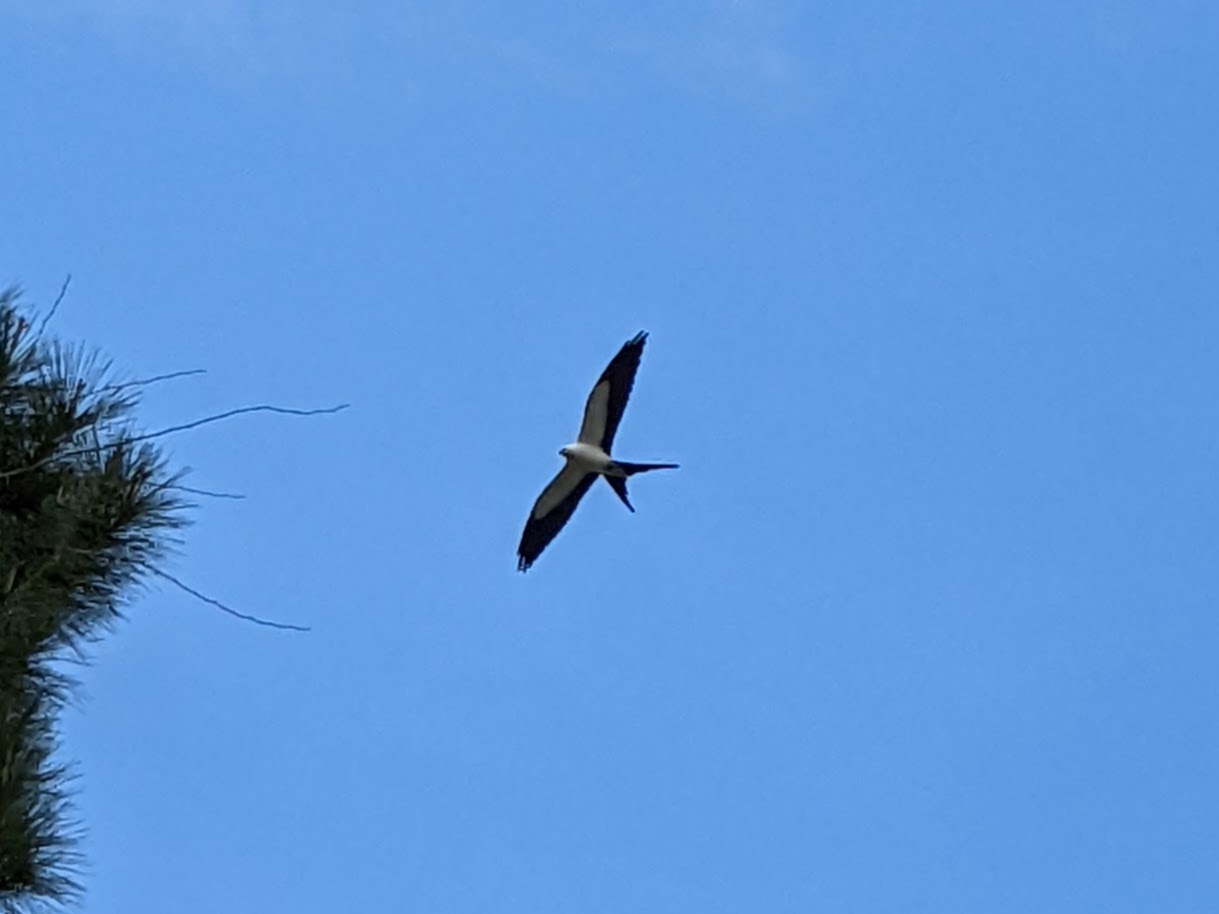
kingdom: Animalia
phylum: Chordata
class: Aves
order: Accipitriformes
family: Accipitridae
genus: Elanoides
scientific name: Elanoides forficatus
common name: Swallow-tailed kite
